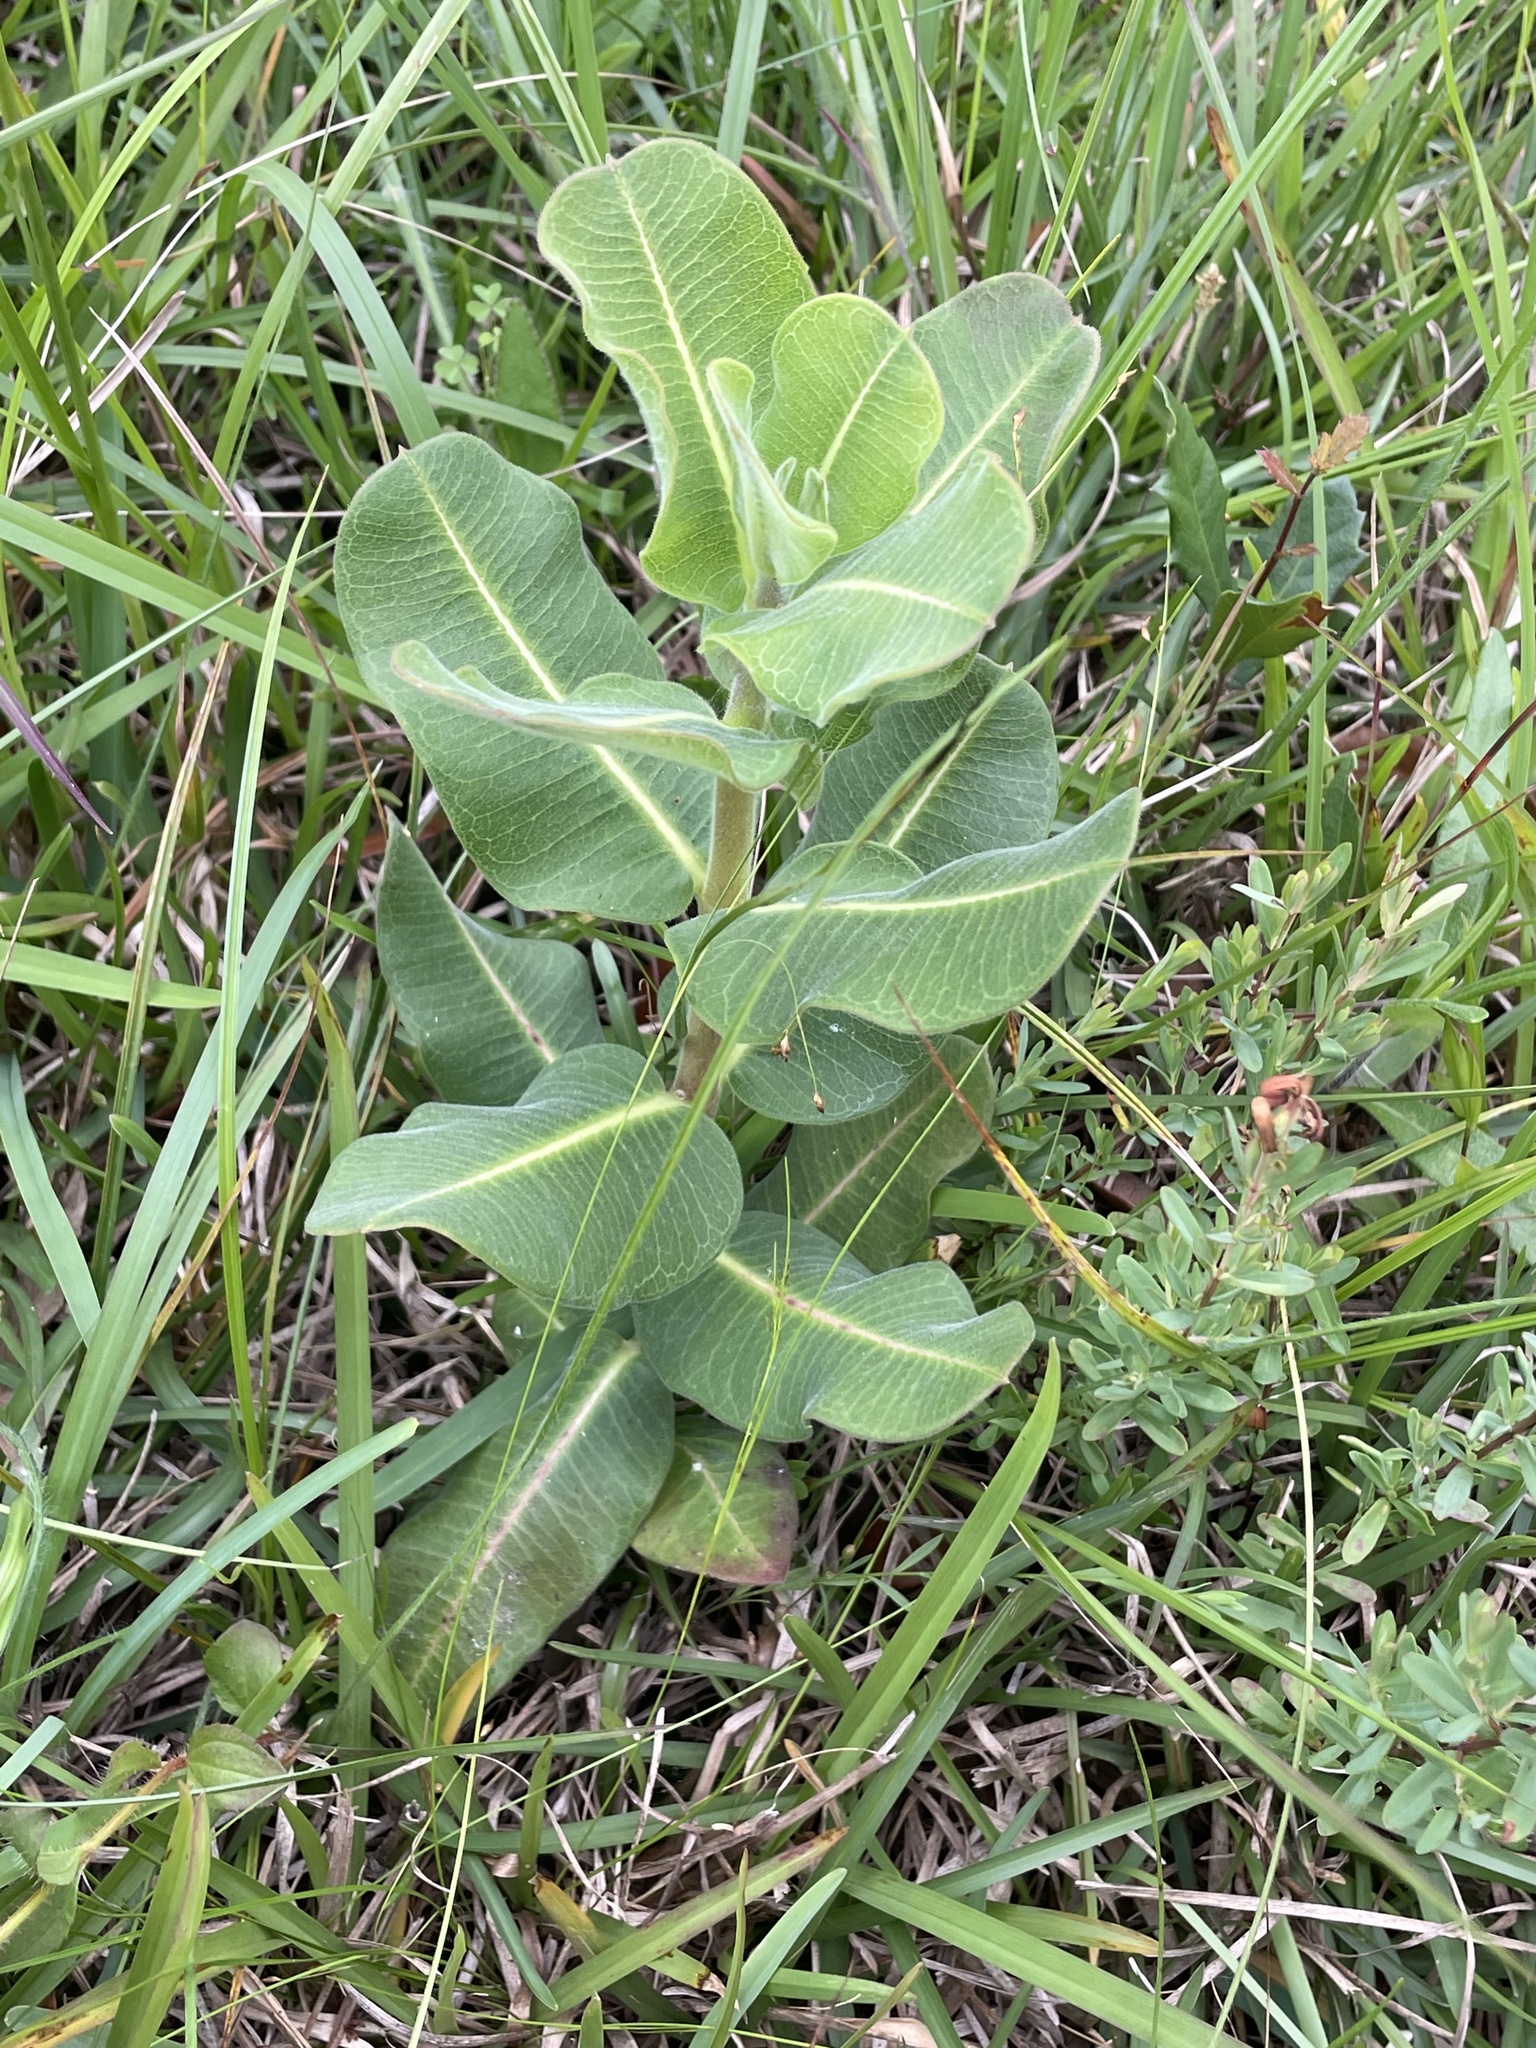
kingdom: Plantae
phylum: Tracheophyta
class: Magnoliopsida
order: Gentianales
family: Apocynaceae
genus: Asclepias
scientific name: Asclepias obovata
